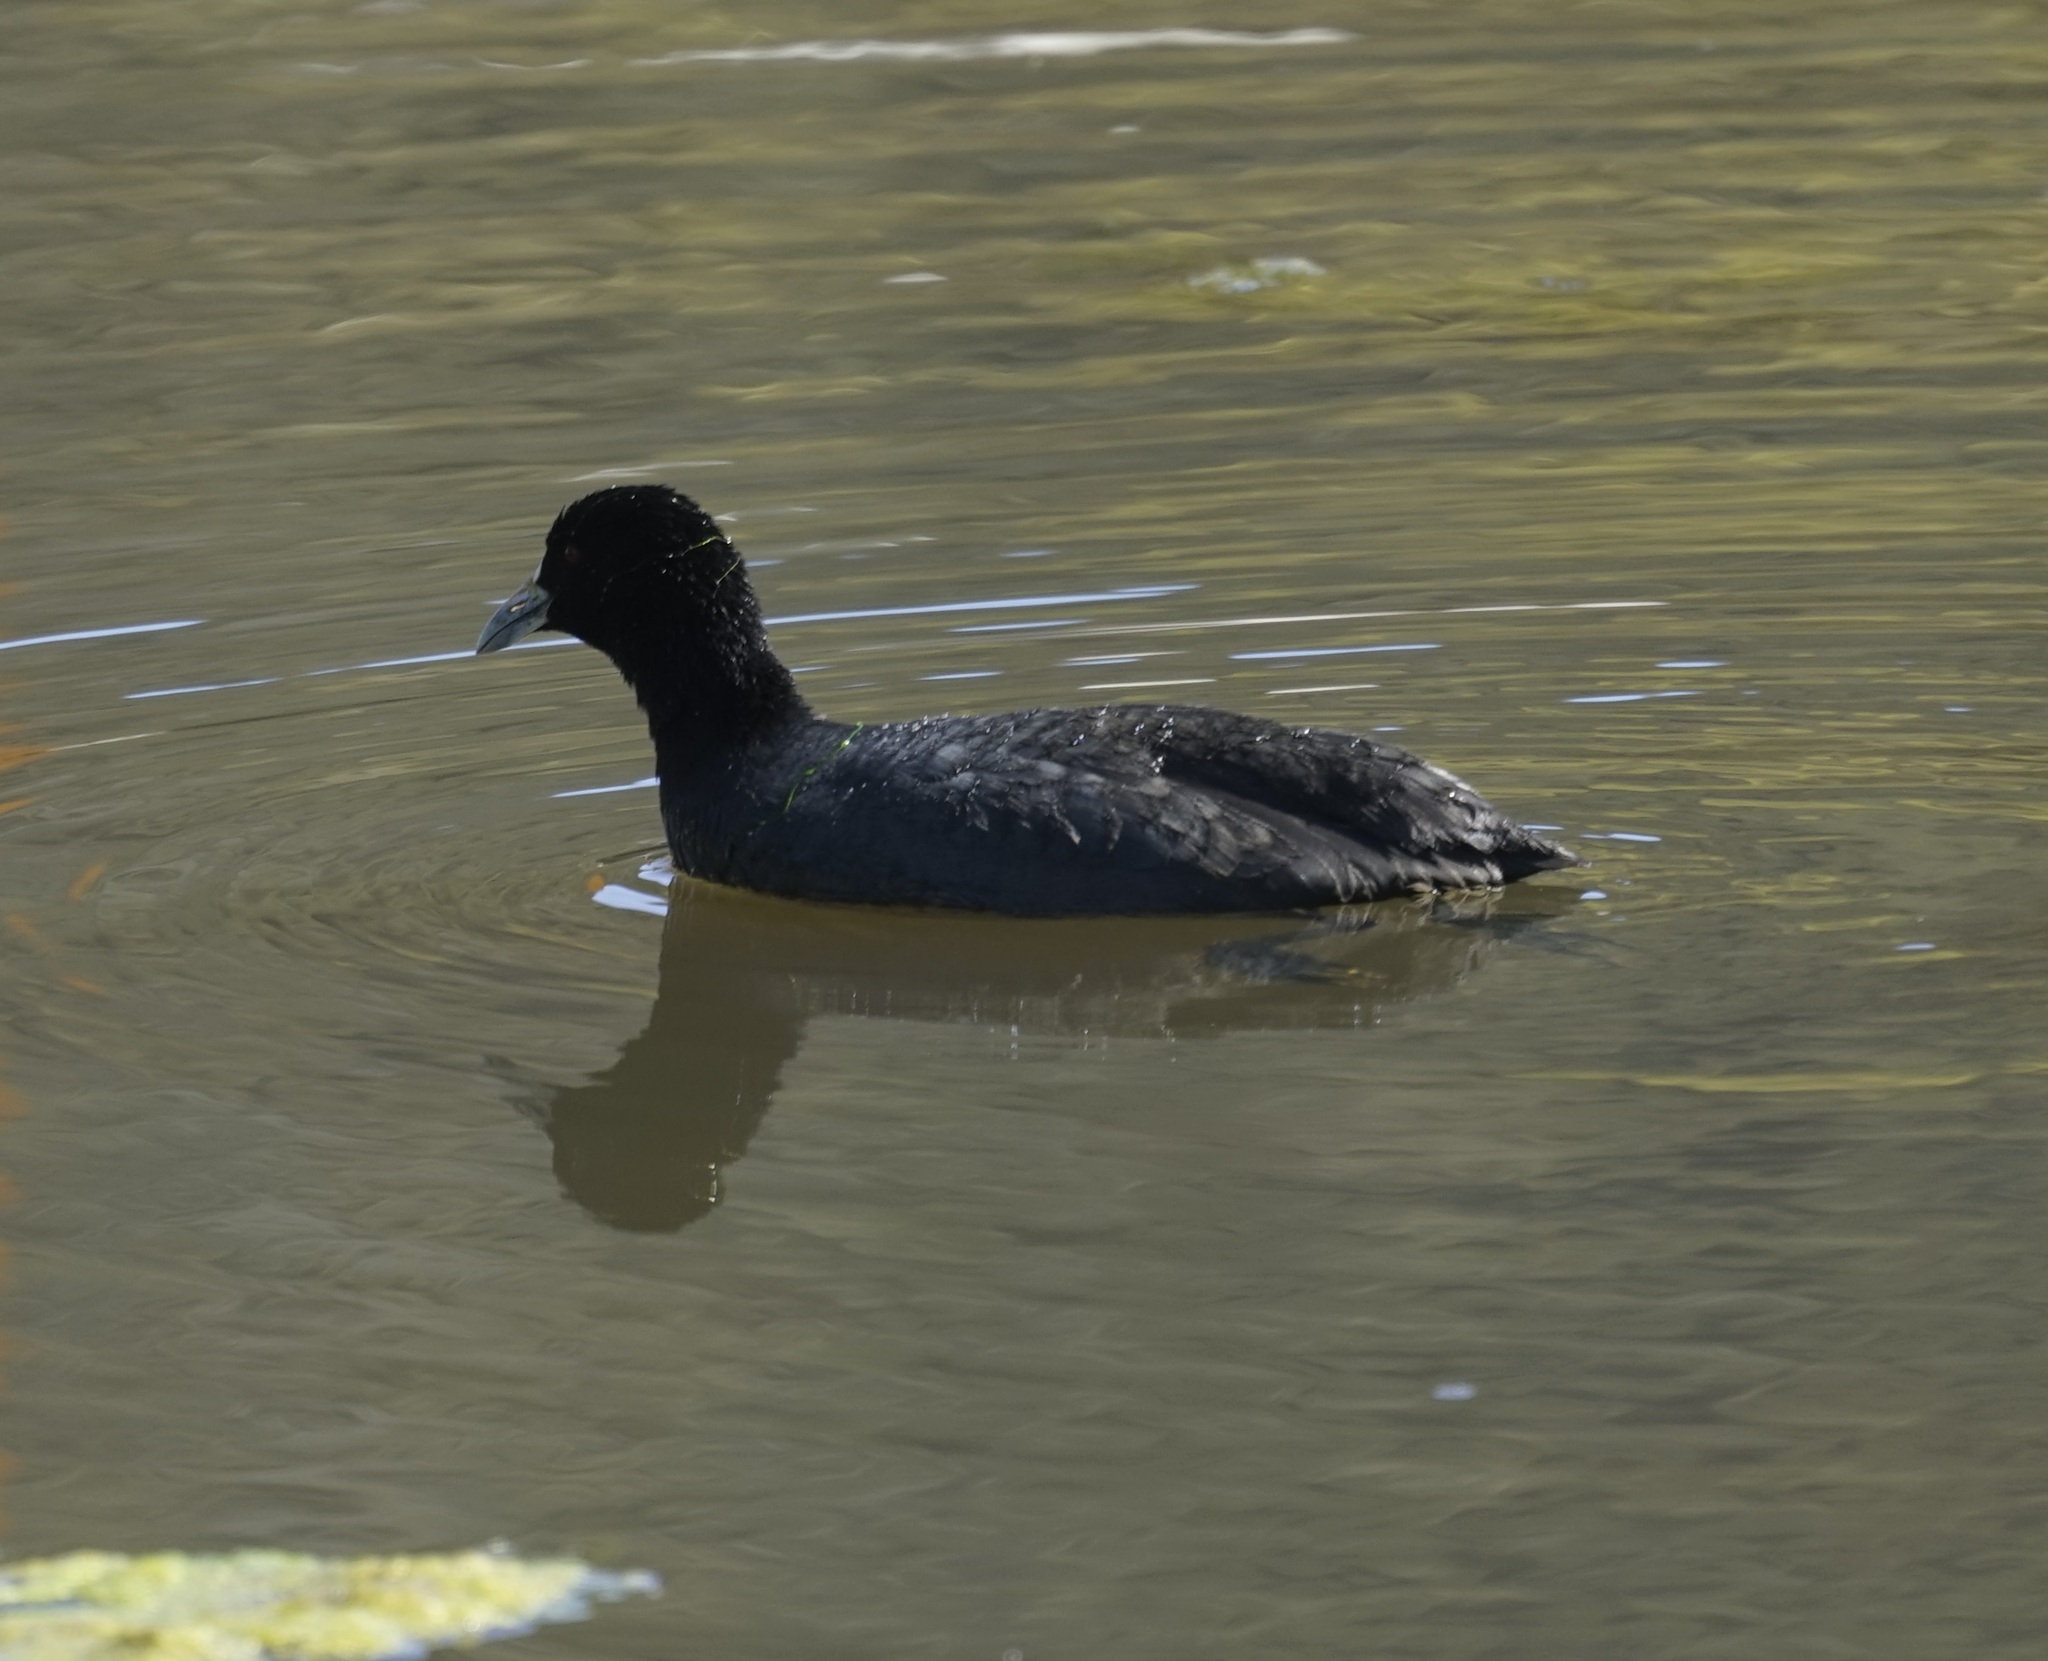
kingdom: Animalia
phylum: Chordata
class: Aves
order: Gruiformes
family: Rallidae
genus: Fulica
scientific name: Fulica atra
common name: Eurasian coot
